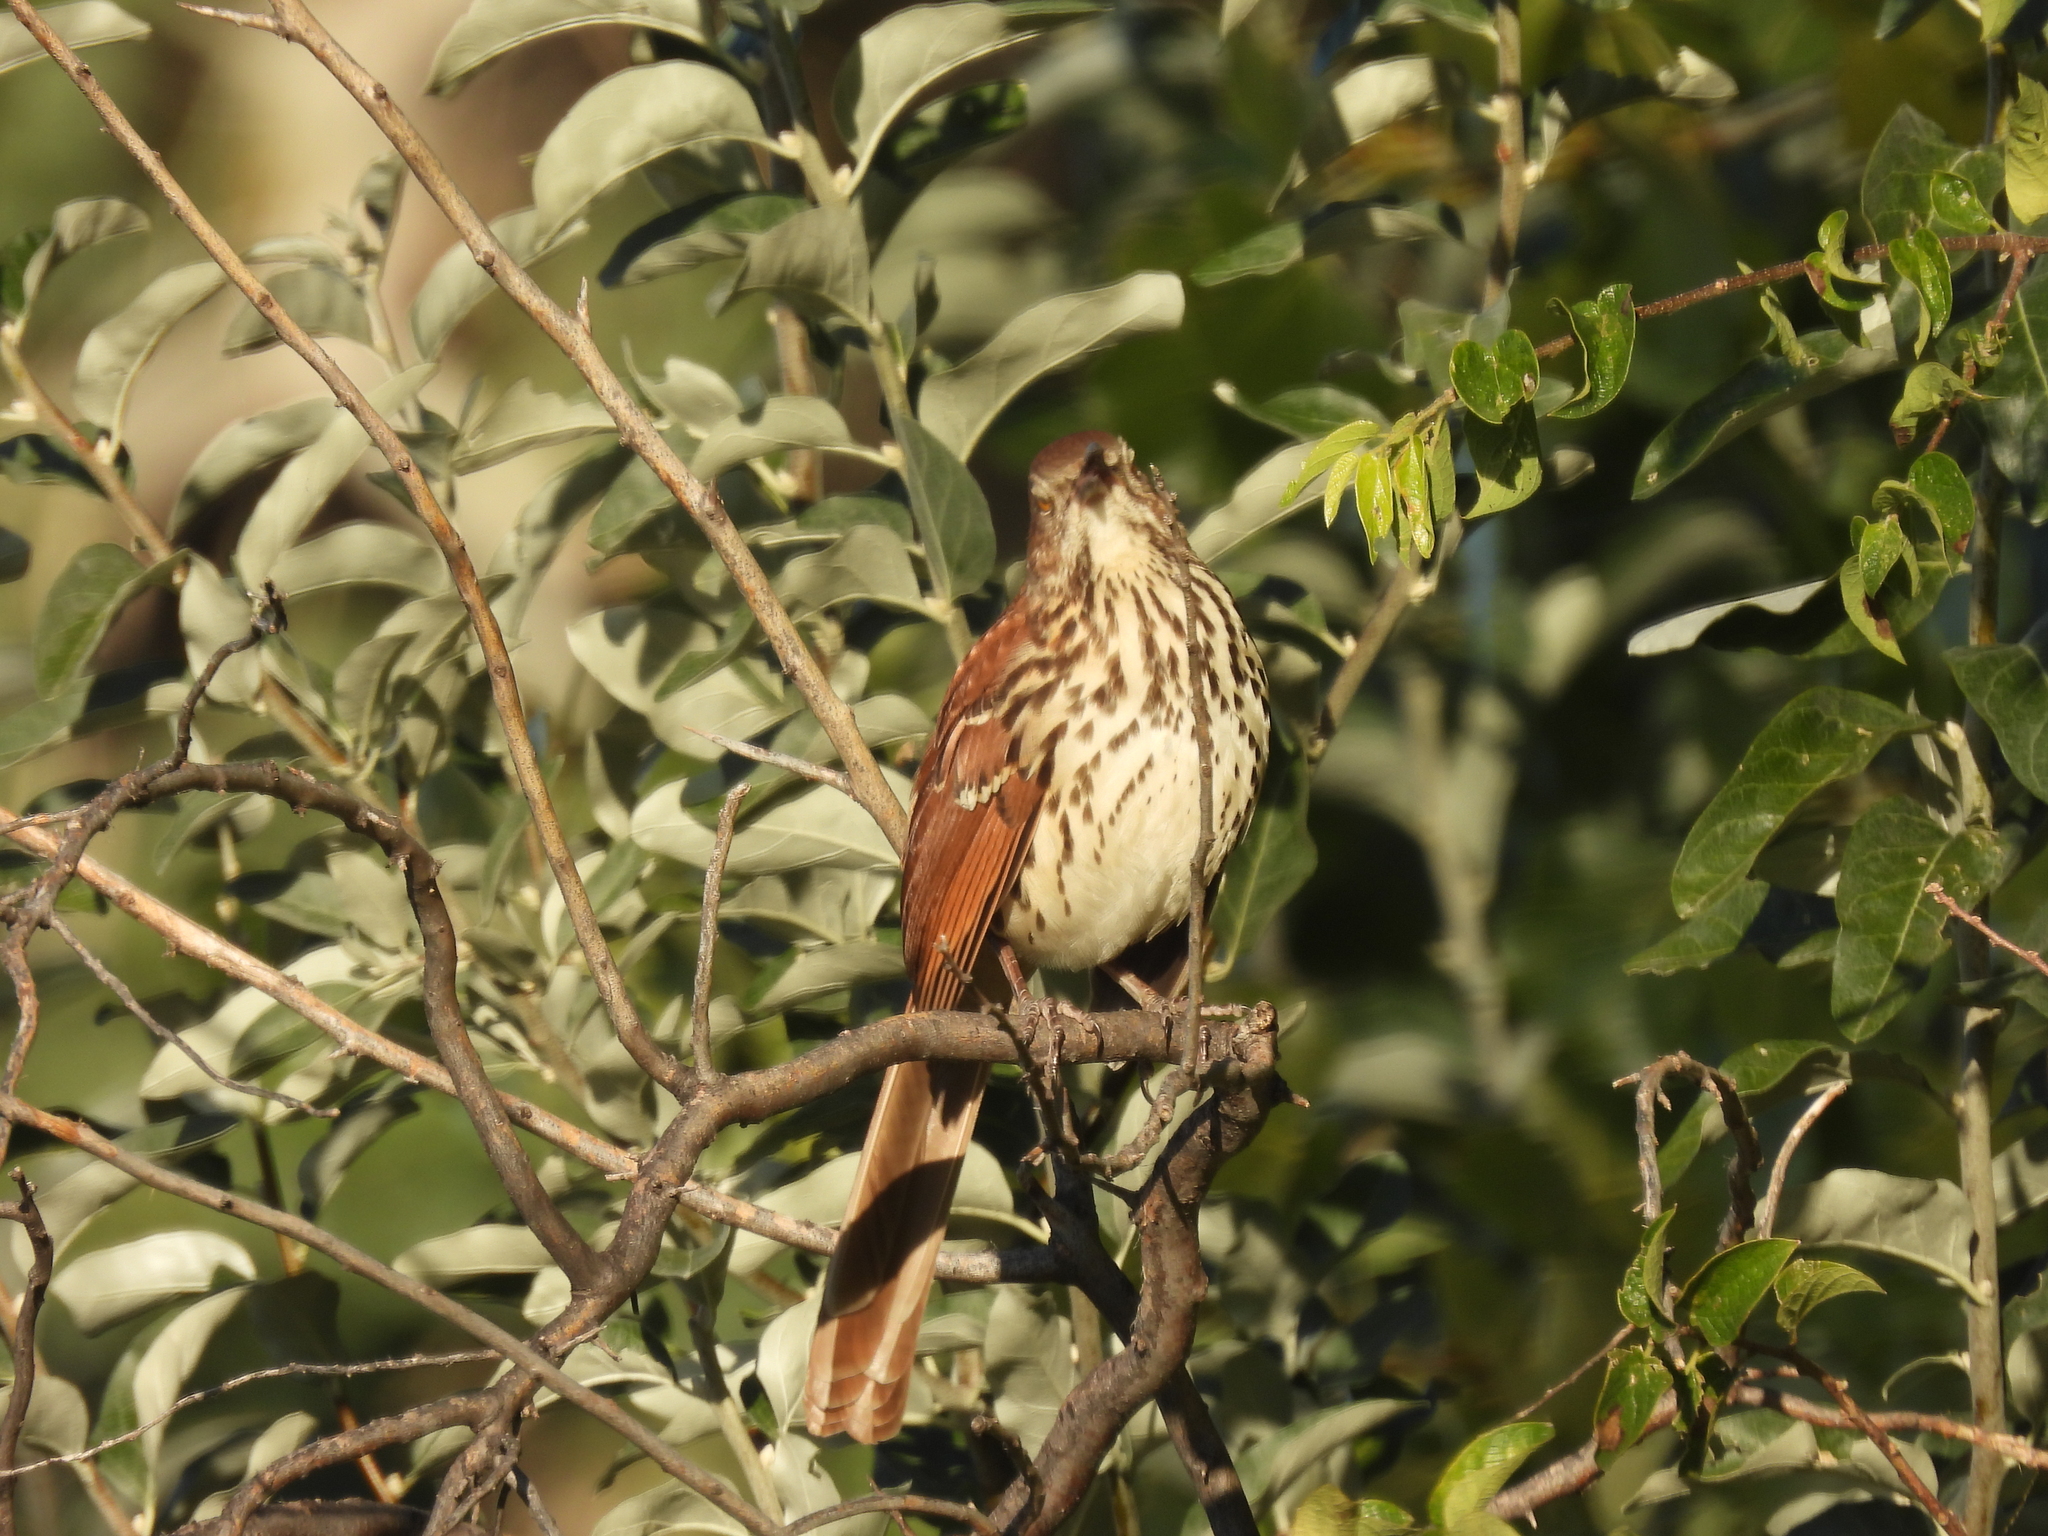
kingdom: Animalia
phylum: Chordata
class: Aves
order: Passeriformes
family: Mimidae
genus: Toxostoma
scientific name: Toxostoma rufum
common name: Brown thrasher
